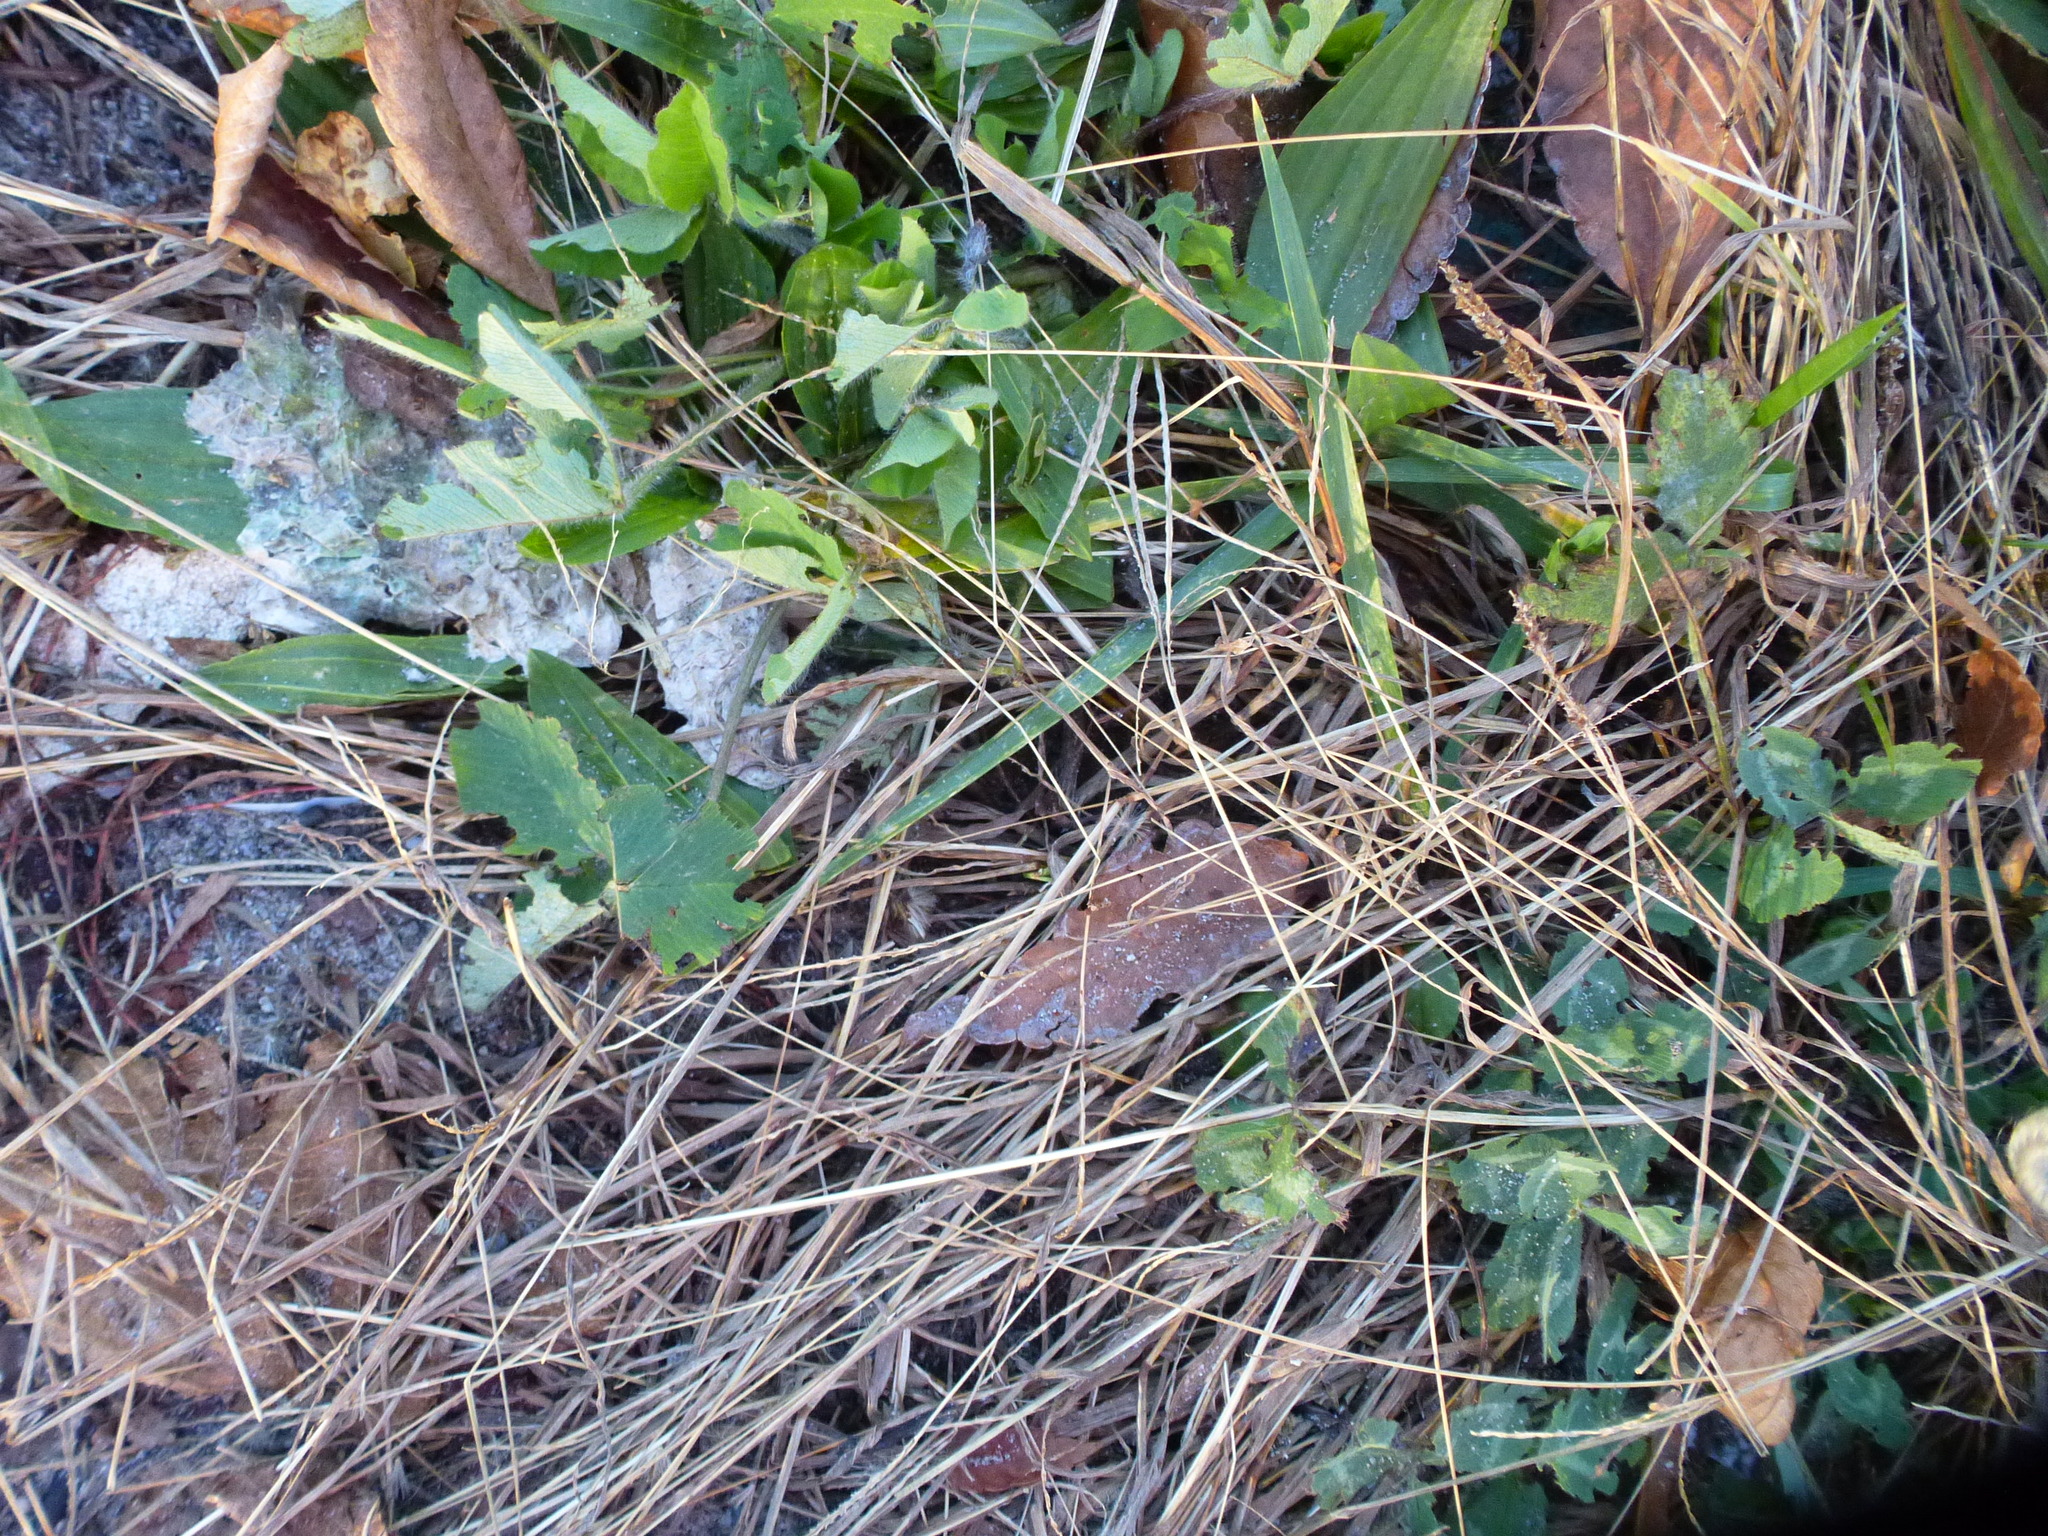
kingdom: Plantae
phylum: Tracheophyta
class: Magnoliopsida
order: Fabales
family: Fabaceae
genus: Trifolium
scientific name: Trifolium pratense
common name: Red clover
